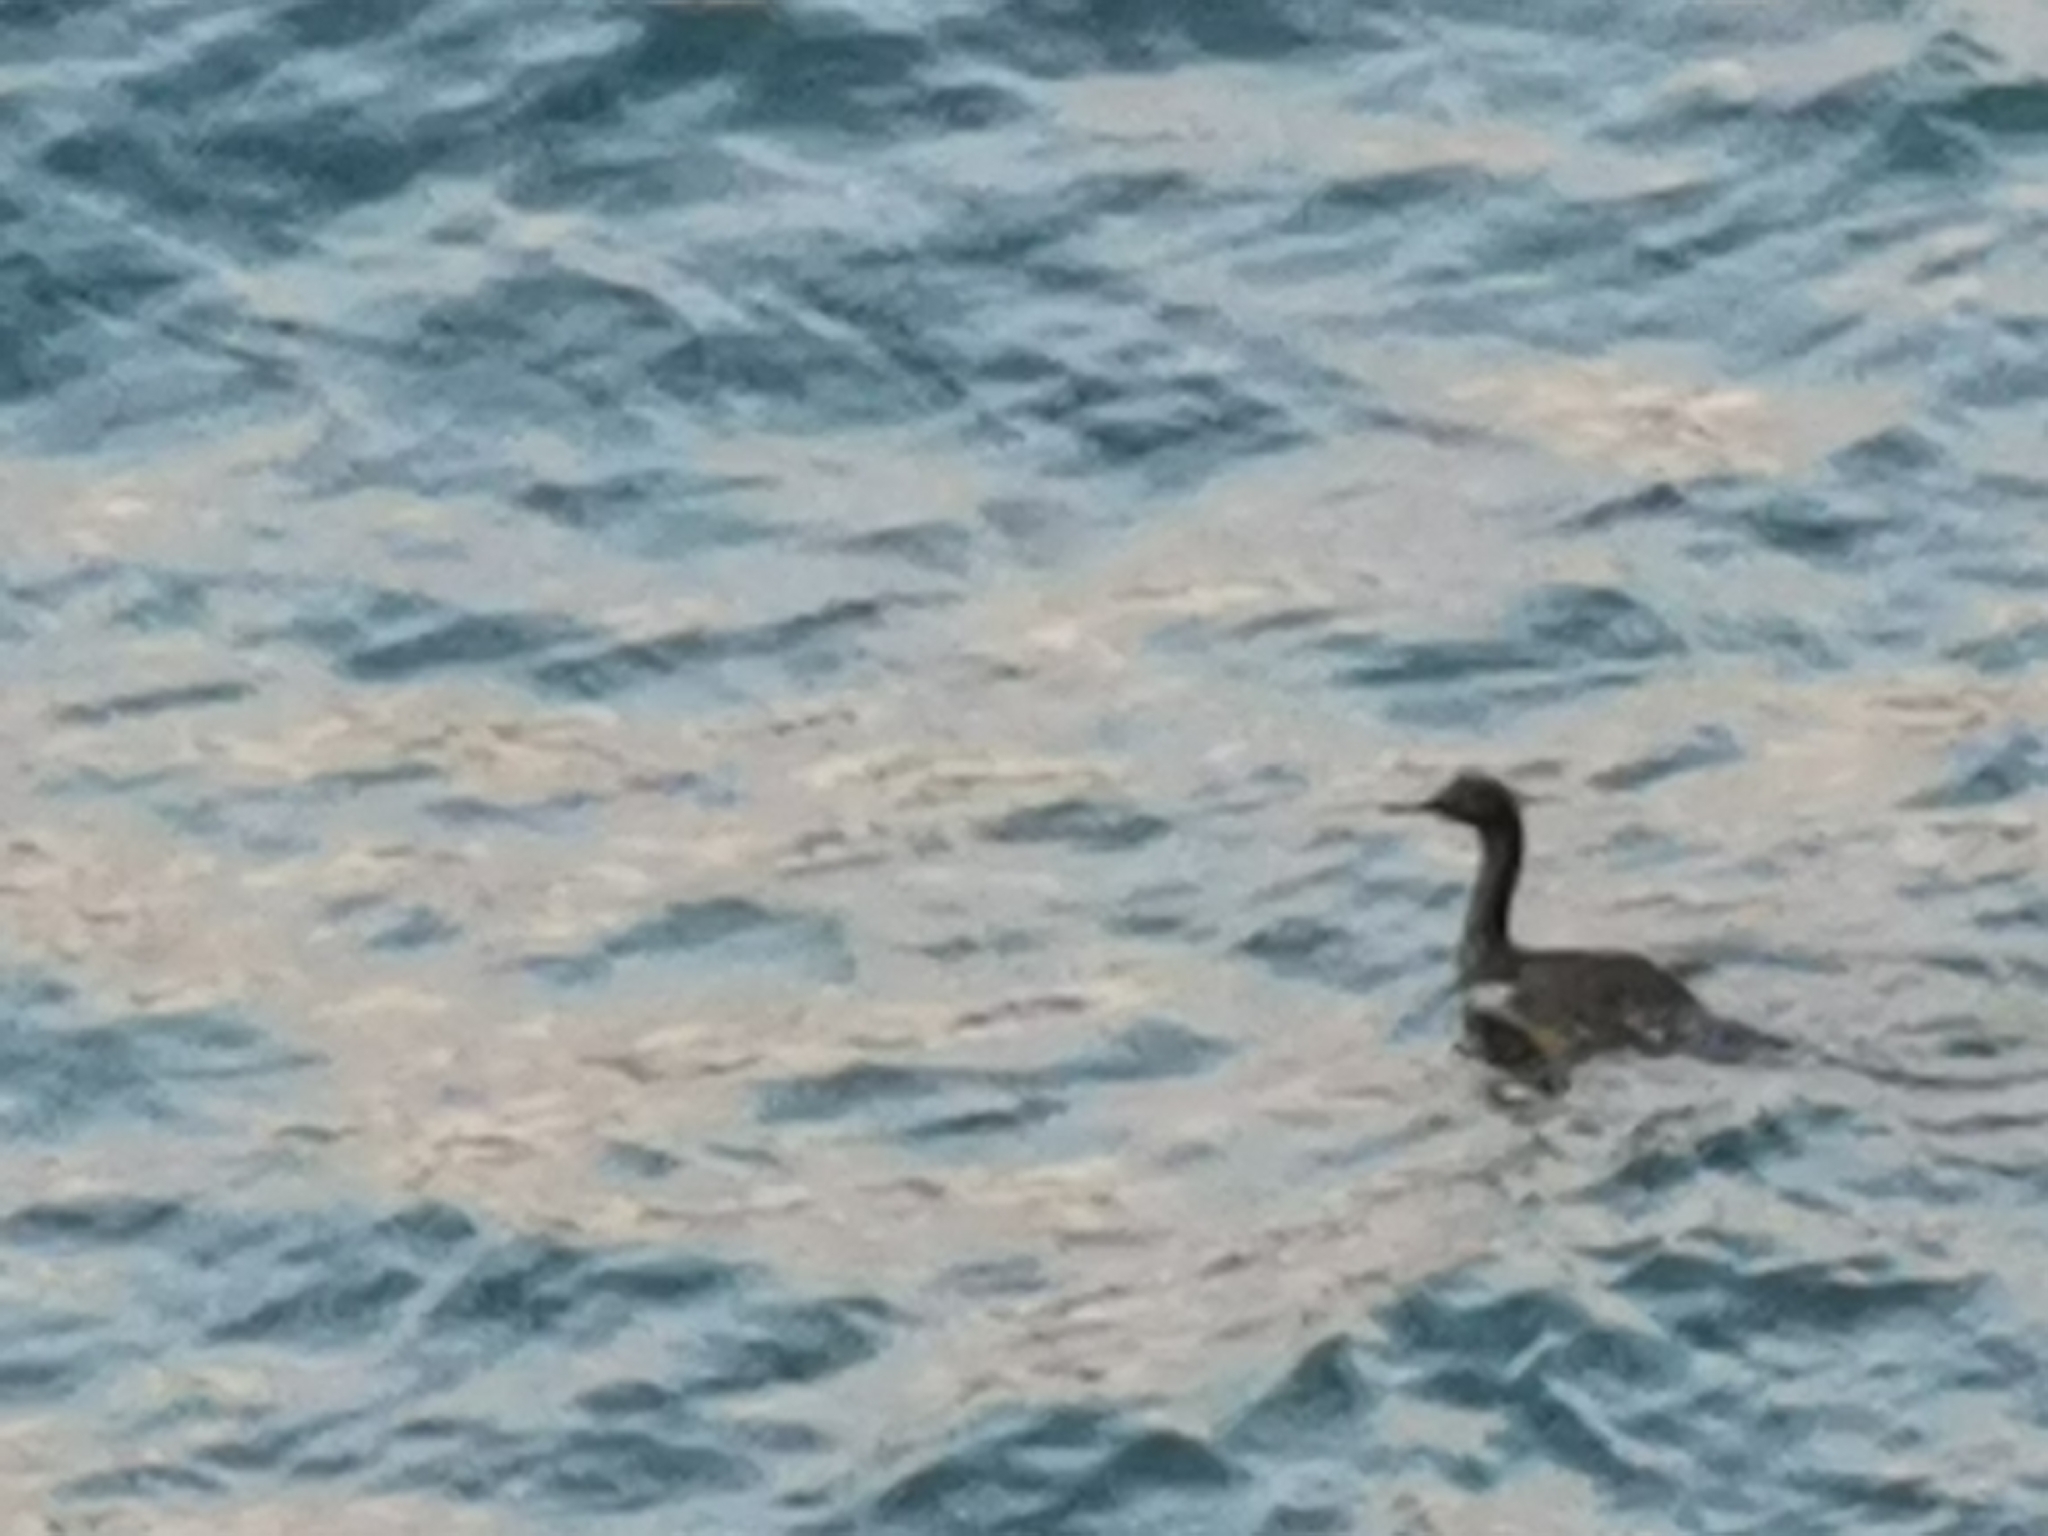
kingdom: Animalia
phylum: Chordata
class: Aves
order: Suliformes
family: Phalacrocoracidae
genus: Phalacrocorax
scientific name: Phalacrocorax pelagicus
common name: Pelagic cormorant
